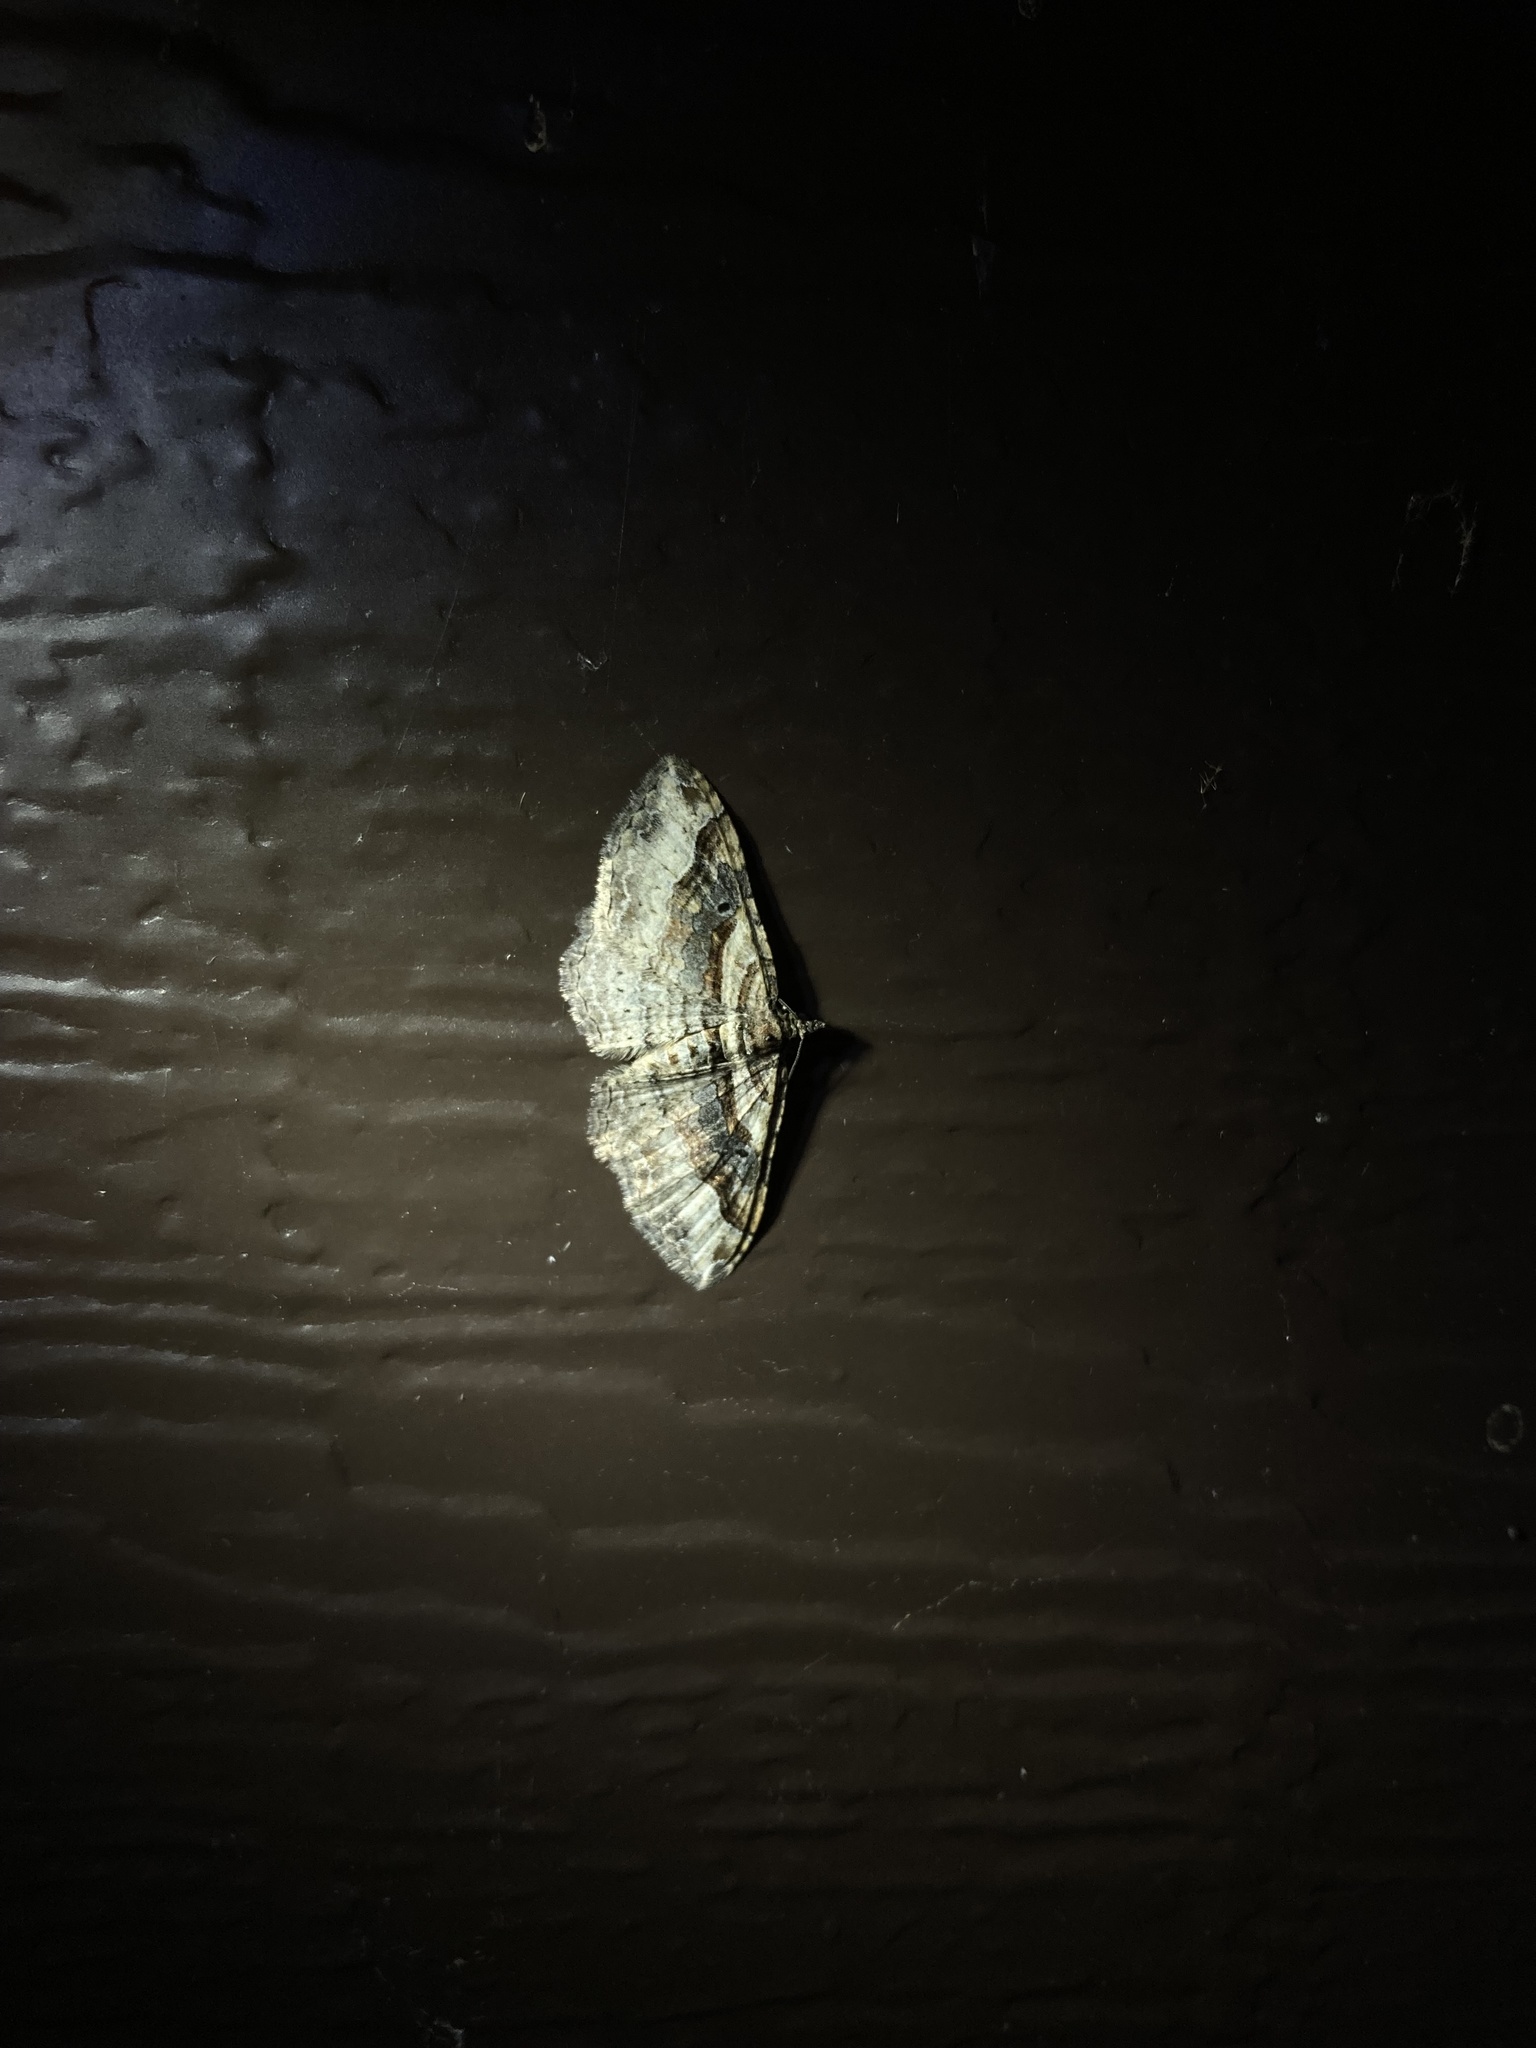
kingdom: Animalia
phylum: Arthropoda
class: Insecta
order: Lepidoptera
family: Geometridae
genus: Costaconvexa
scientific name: Costaconvexa centrostrigaria
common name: Bent-line carpet
